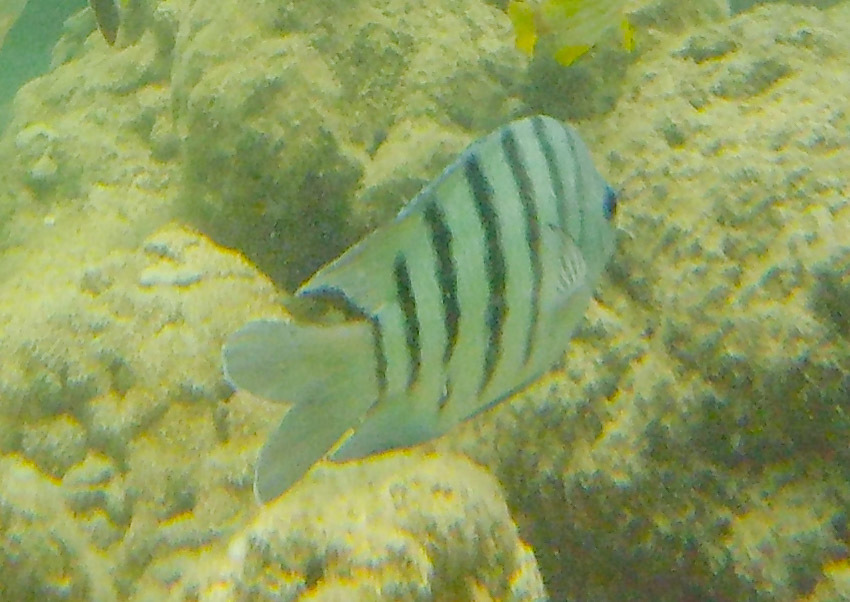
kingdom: Animalia
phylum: Chordata
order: Perciformes
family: Pomacentridae
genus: Abudefduf
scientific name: Abudefduf bengalensis
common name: Bengal sergeant
